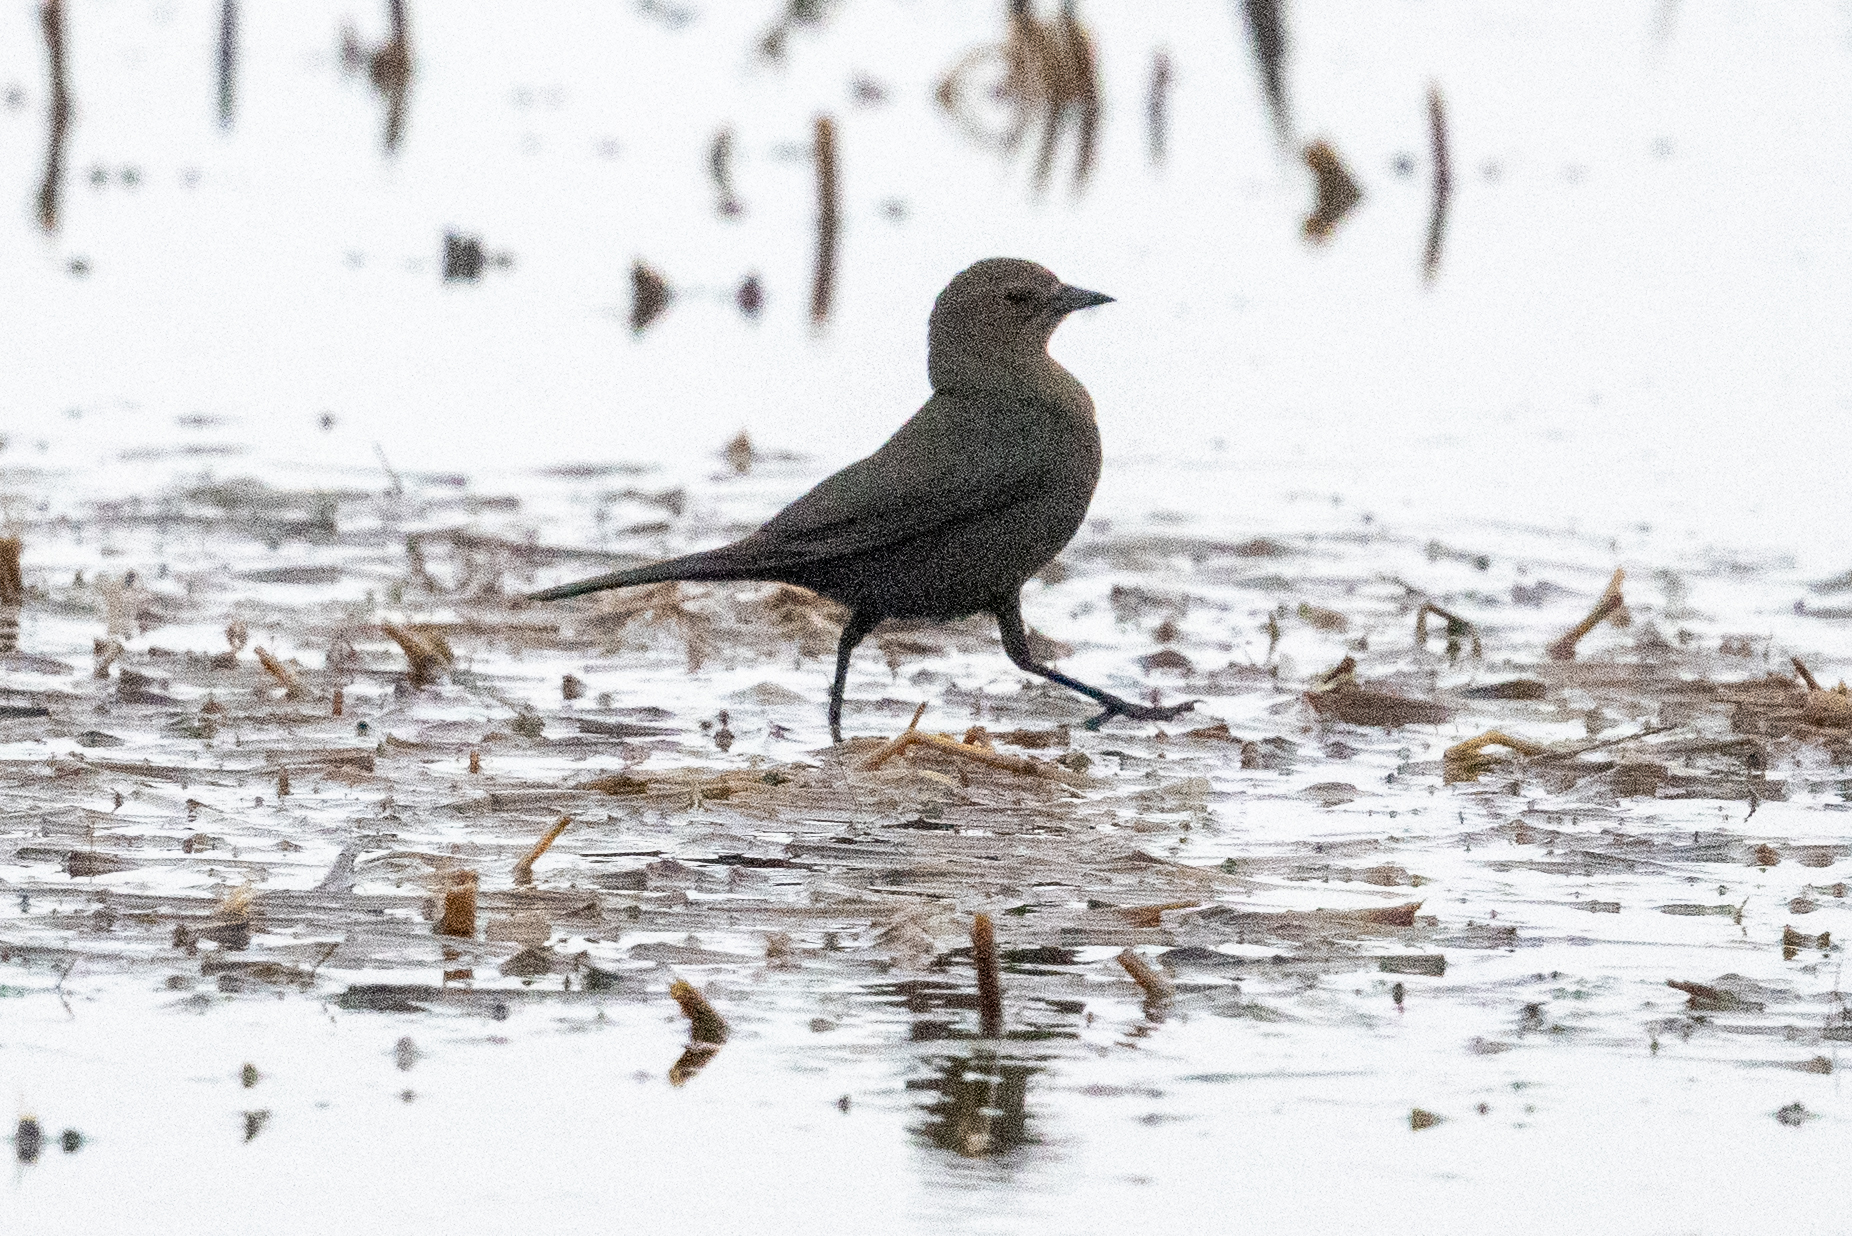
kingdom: Animalia
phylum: Chordata
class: Aves
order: Passeriformes
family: Icteridae
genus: Euphagus
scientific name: Euphagus cyanocephalus
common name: Brewer's blackbird
